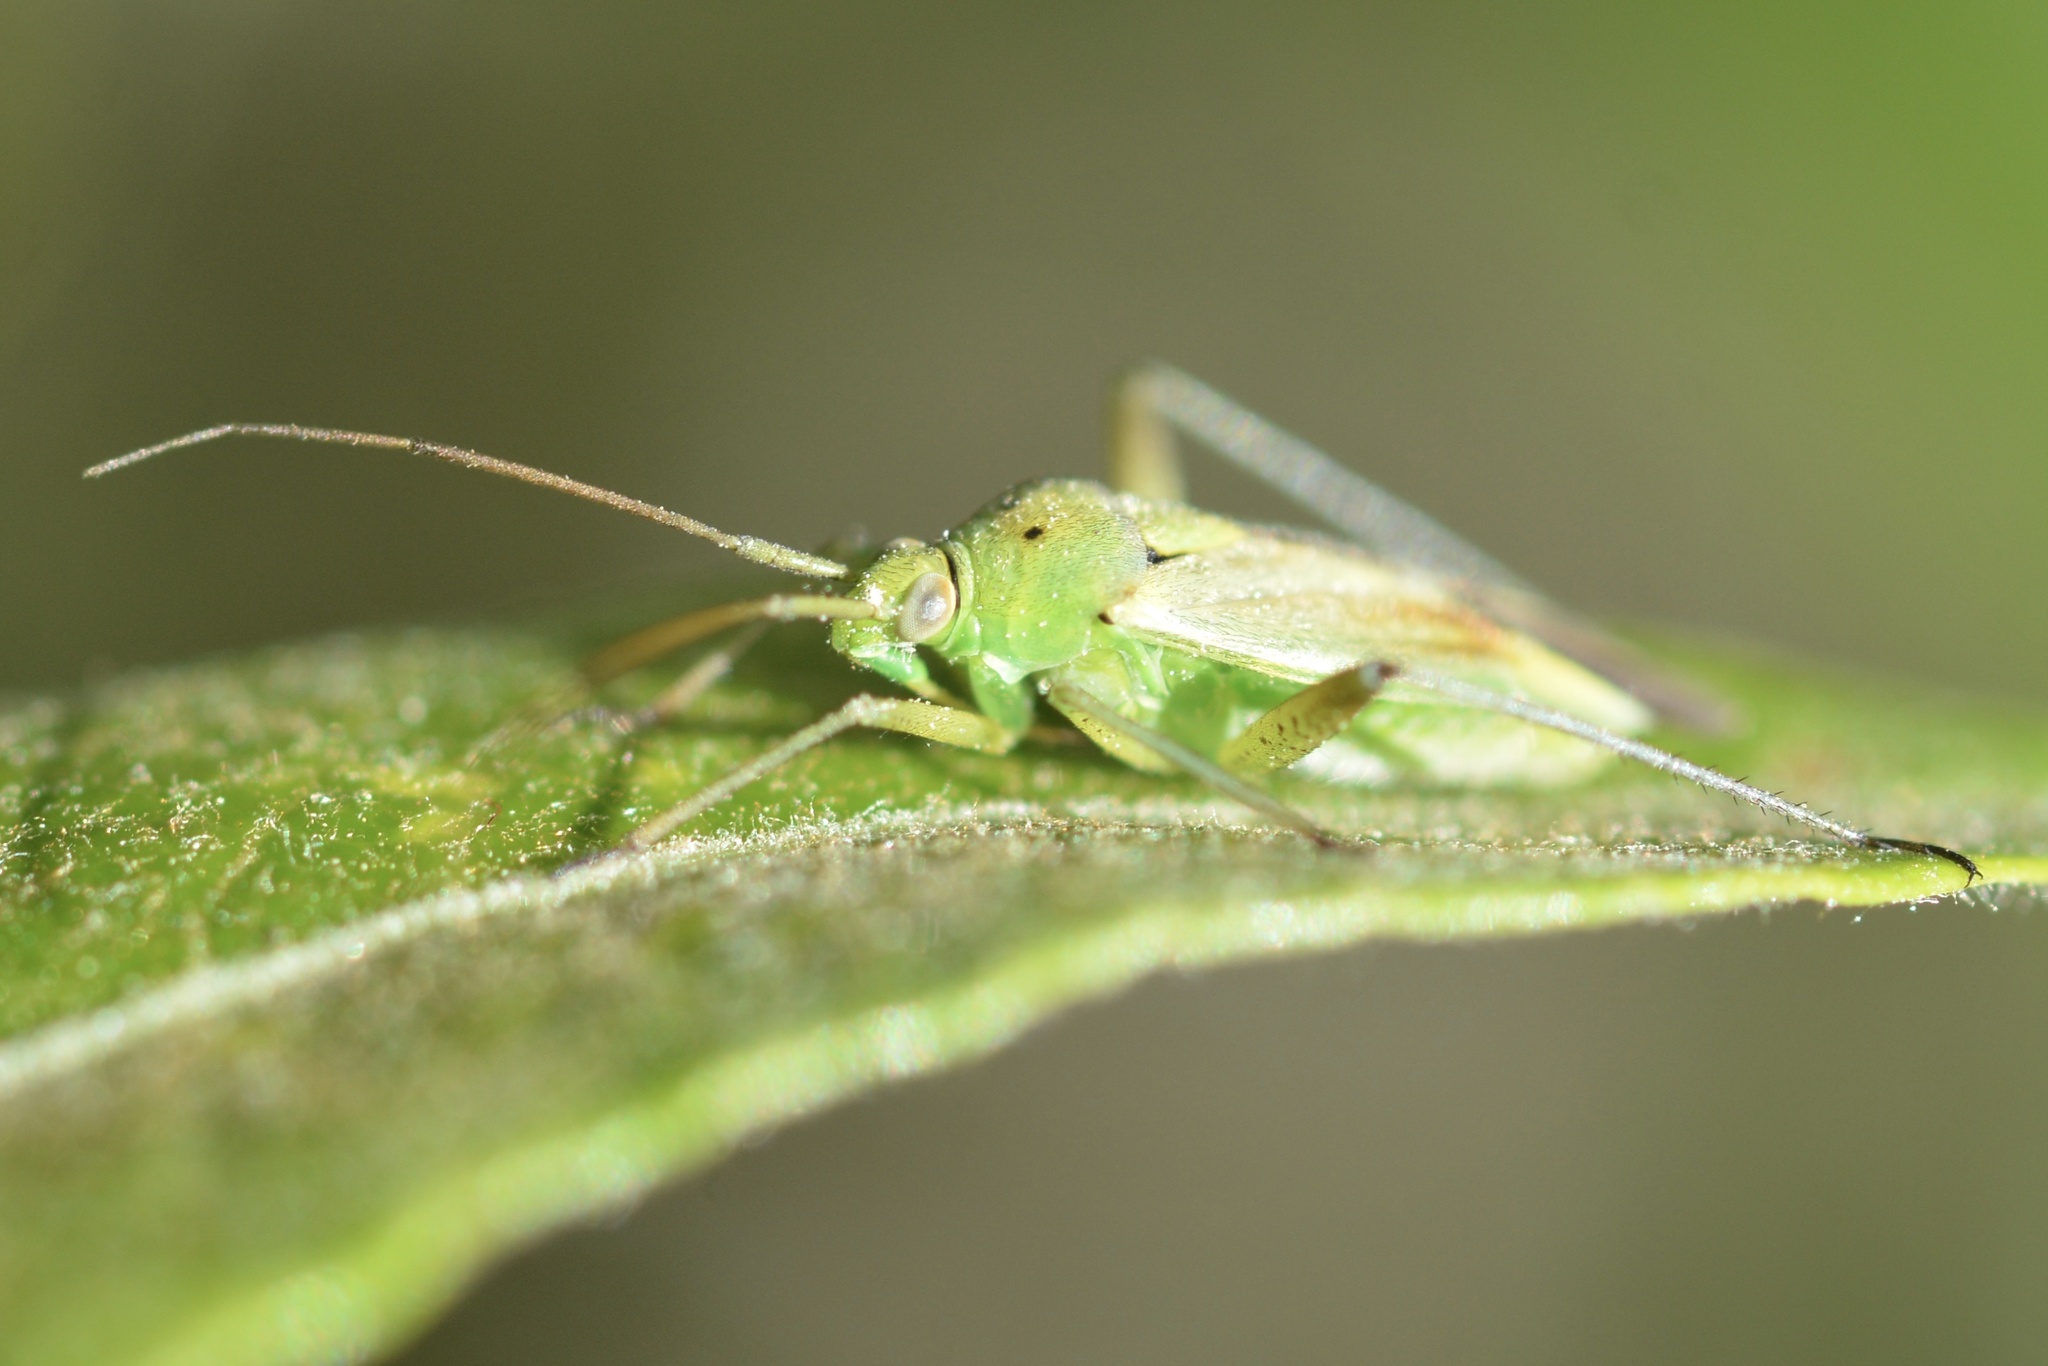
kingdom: Animalia
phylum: Arthropoda
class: Insecta
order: Hemiptera
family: Miridae
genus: Closterotomus
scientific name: Closterotomus norvegicus
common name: Plant bug
